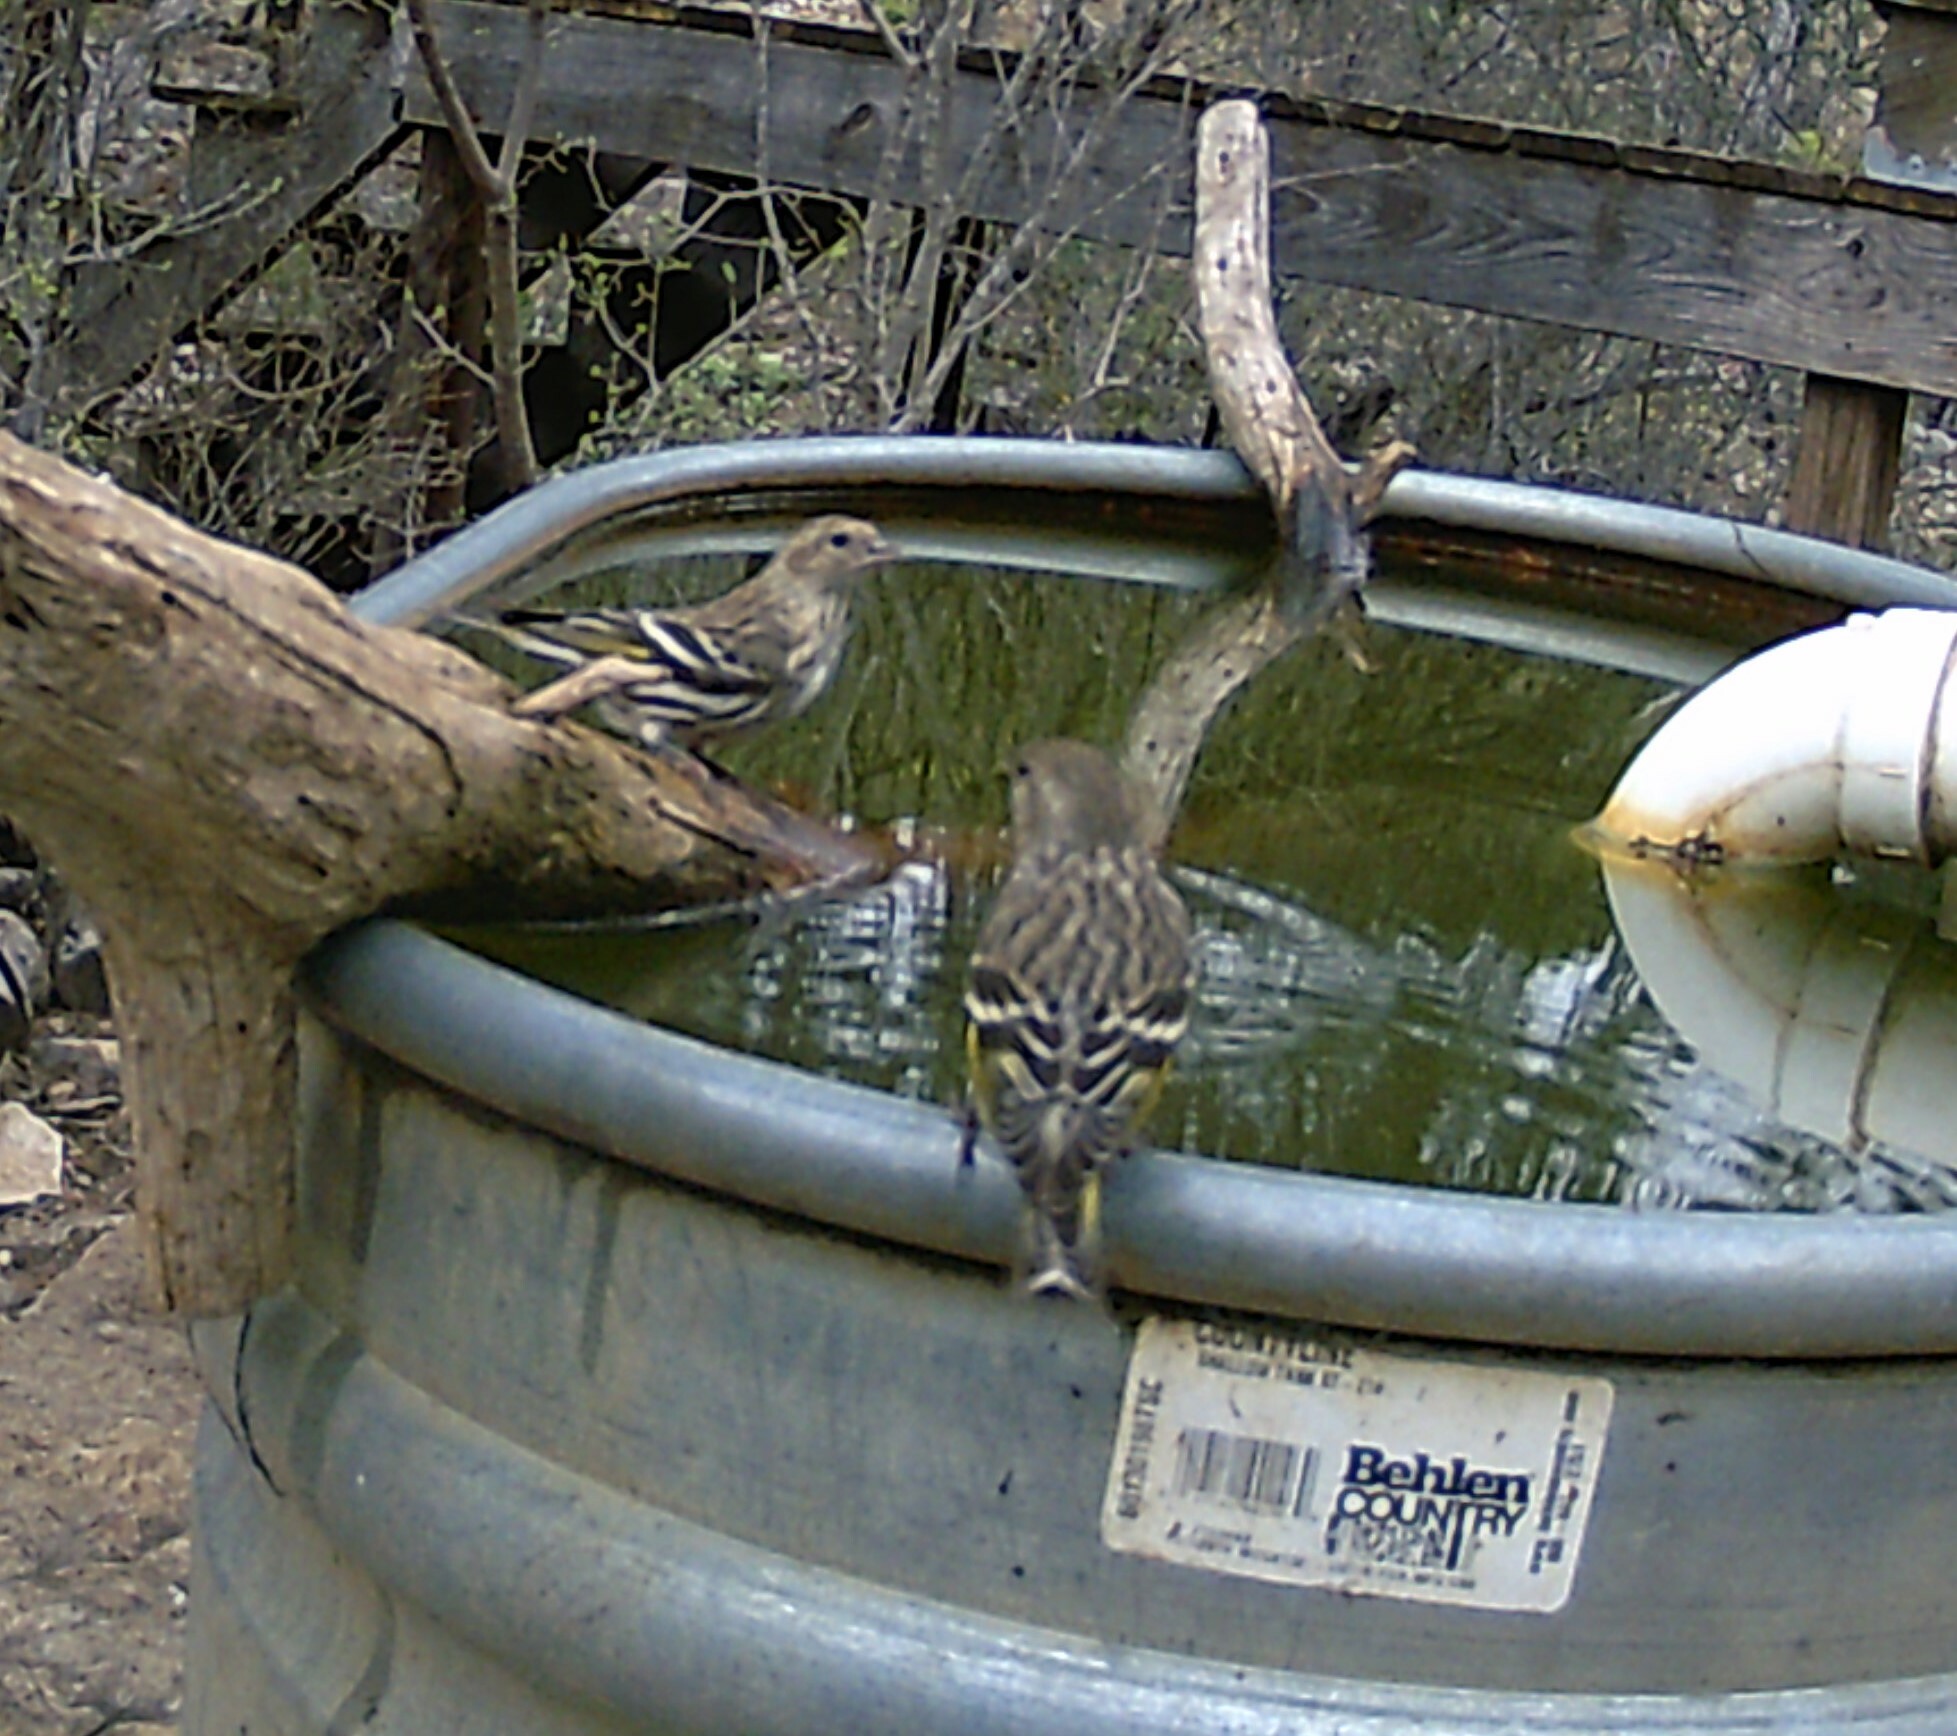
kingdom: Animalia
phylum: Chordata
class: Aves
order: Passeriformes
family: Fringillidae
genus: Spinus
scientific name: Spinus pinus
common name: Pine siskin
